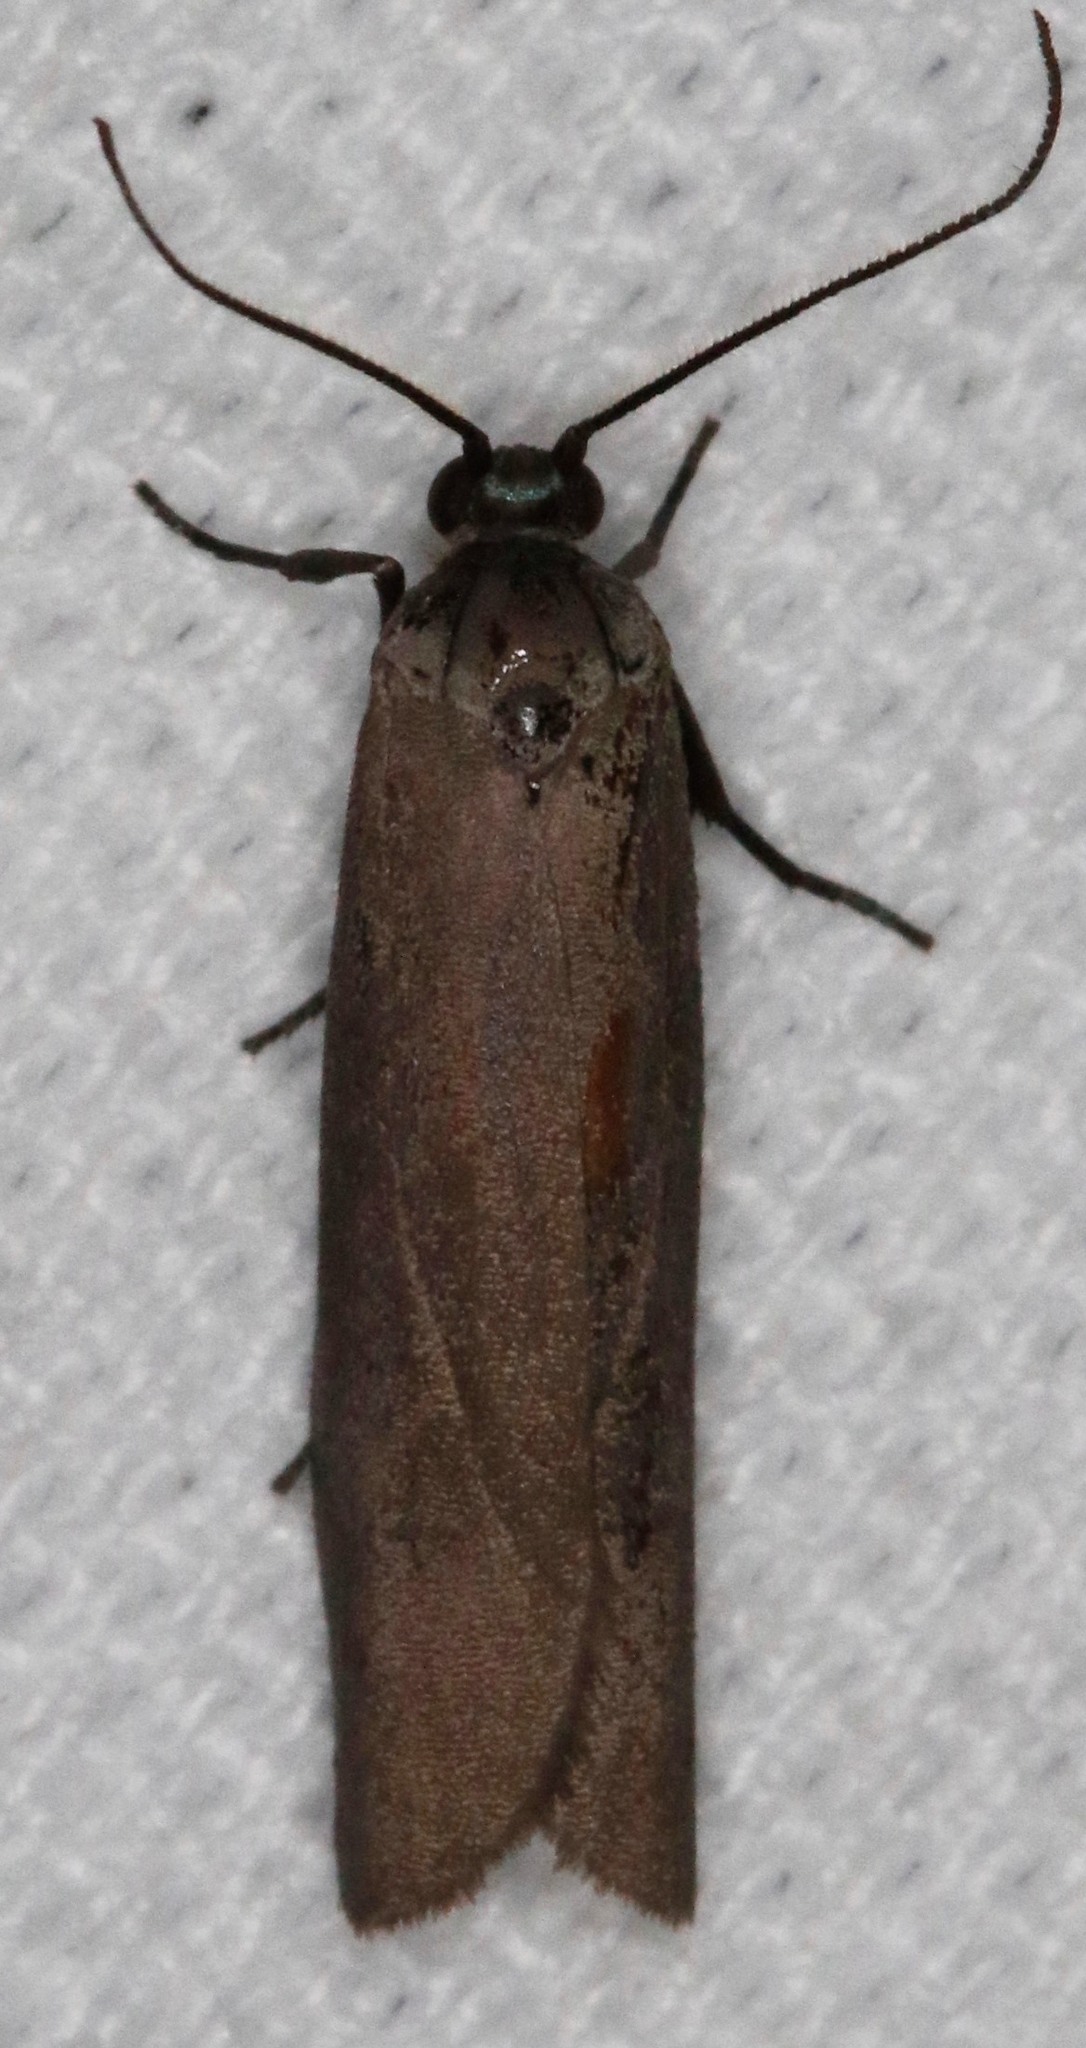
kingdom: Animalia
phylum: Arthropoda
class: Insecta
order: Lepidoptera
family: Urodidae
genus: Urodus
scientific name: Urodus parvula
